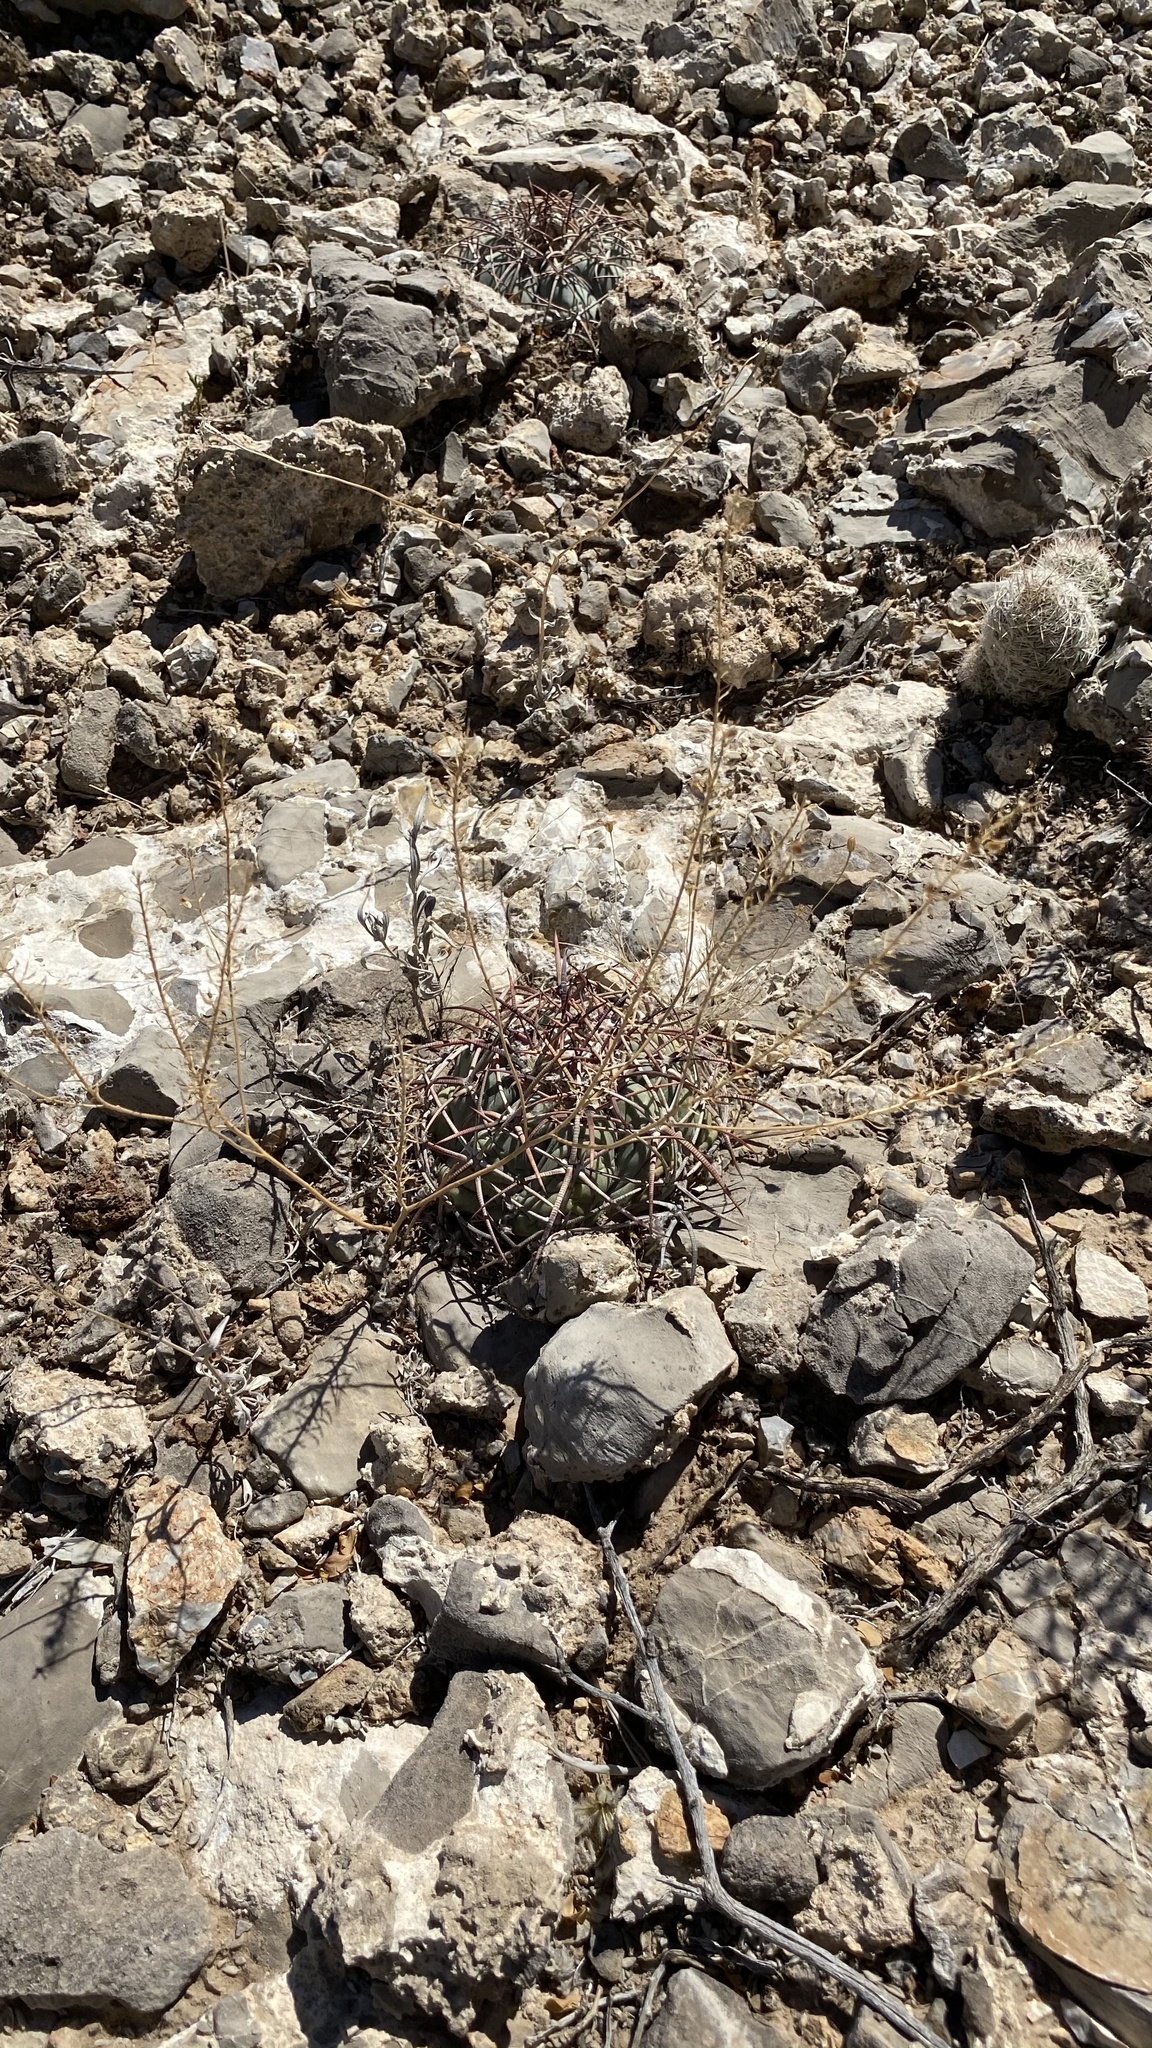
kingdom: Plantae
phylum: Tracheophyta
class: Magnoliopsida
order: Caryophyllales
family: Cactaceae
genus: Echinocactus
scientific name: Echinocactus horizonthalonius
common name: Devilshead
